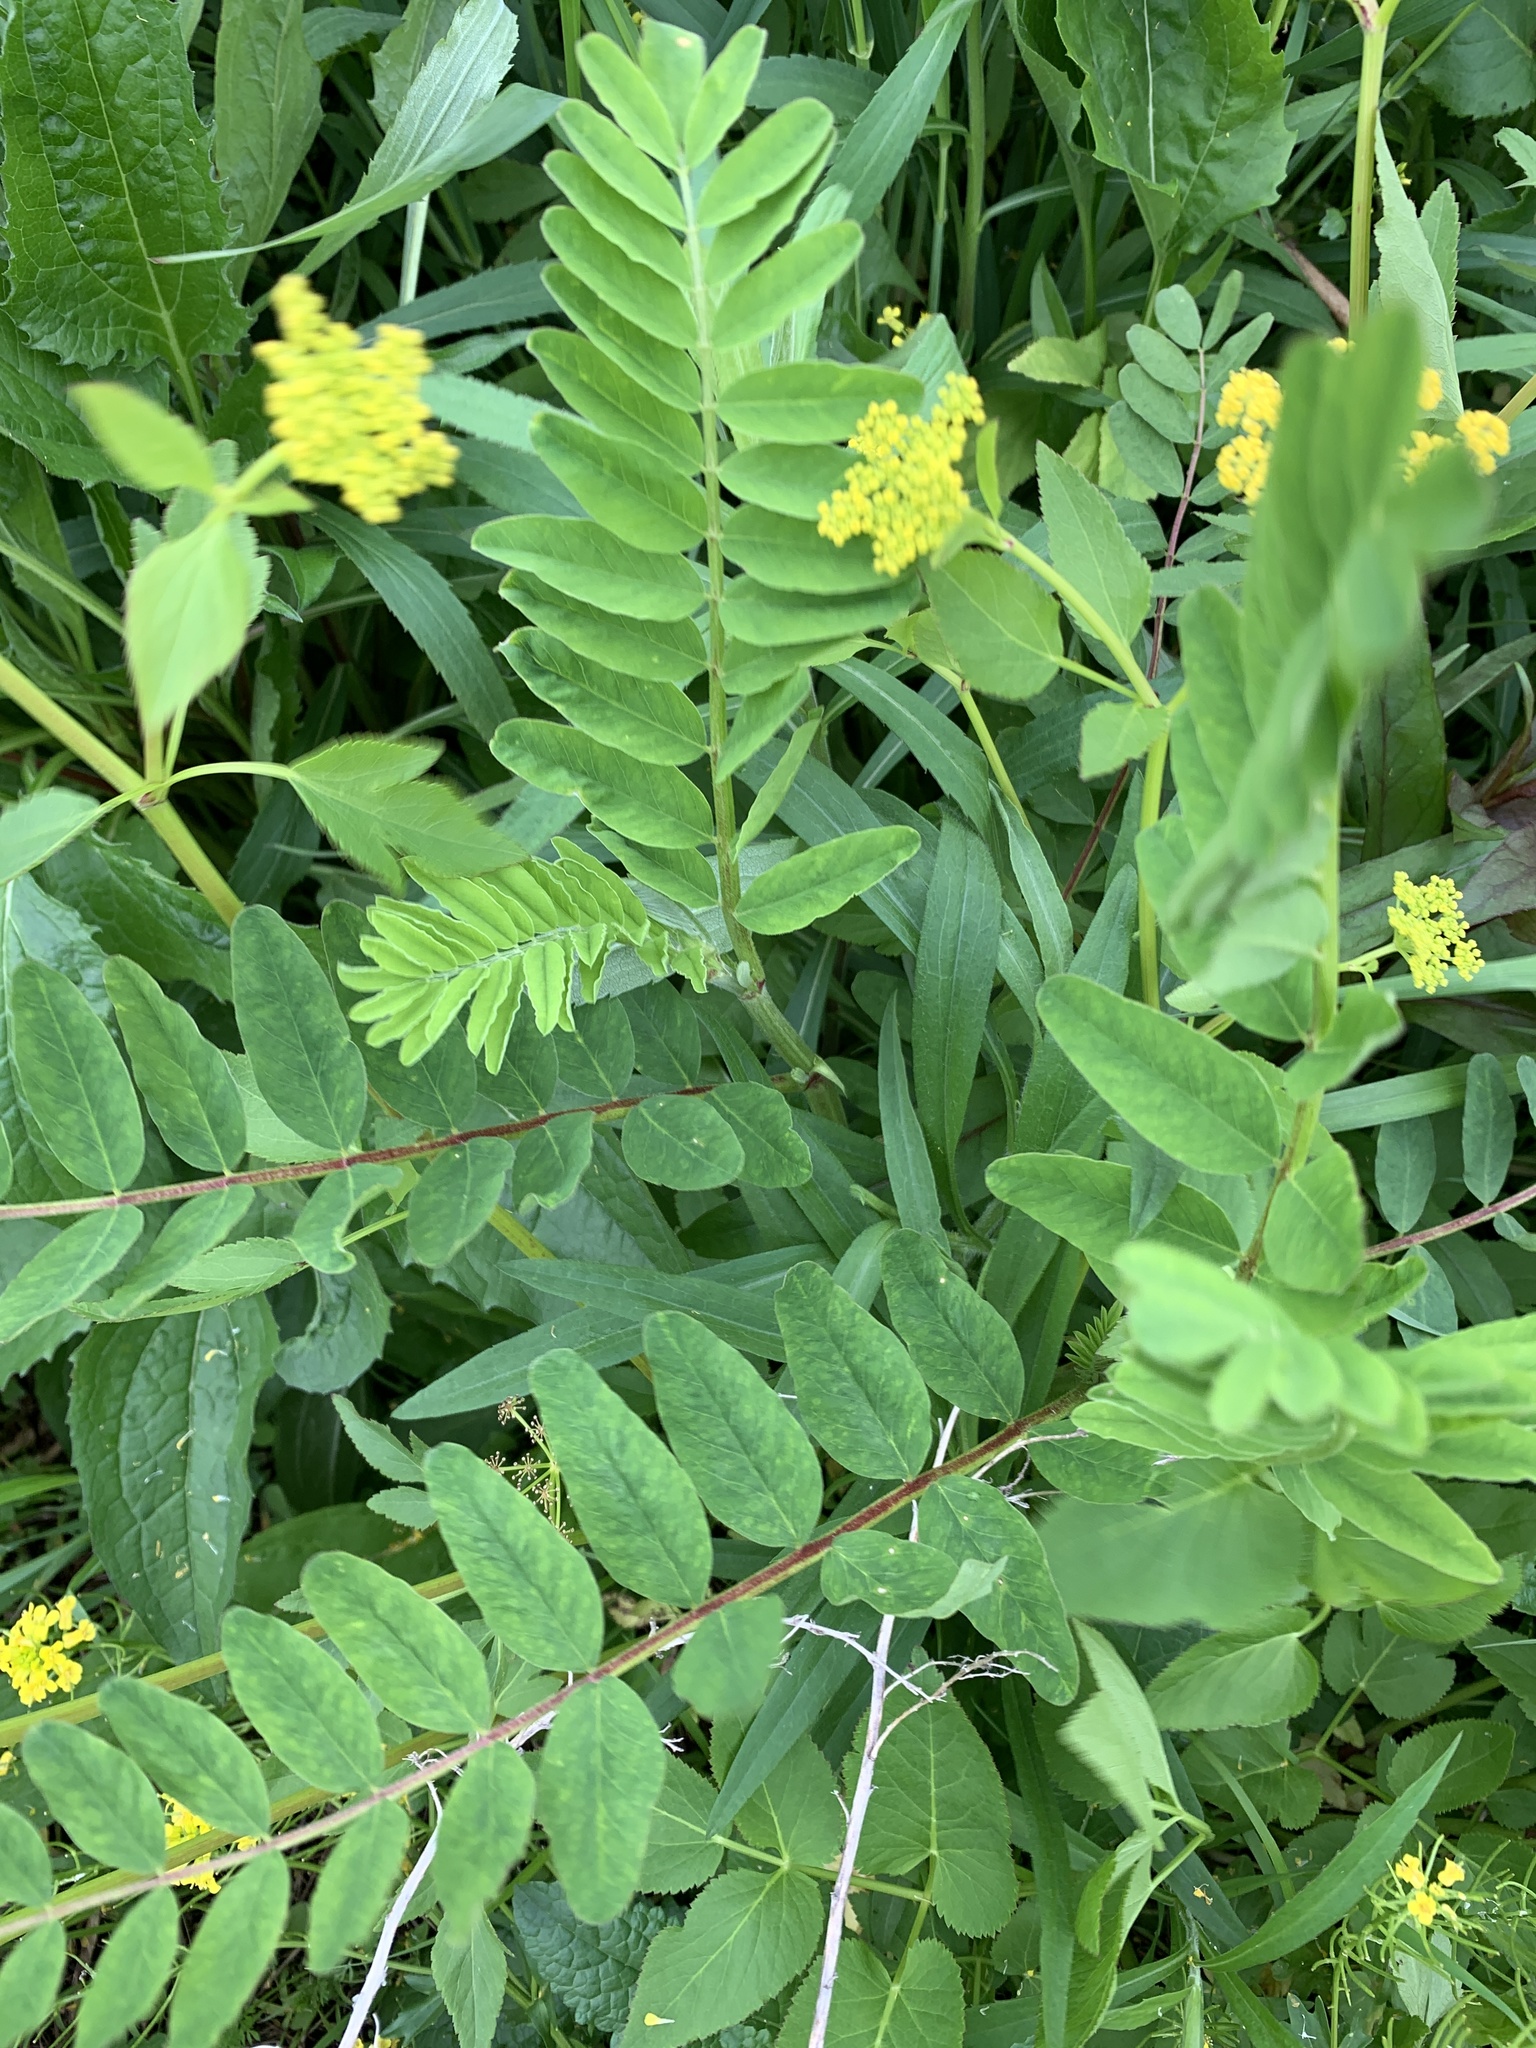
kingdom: Plantae
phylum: Tracheophyta
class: Magnoliopsida
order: Fabales
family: Fabaceae
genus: Astragalus
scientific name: Astragalus canadensis
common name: Canada milk-vetch
